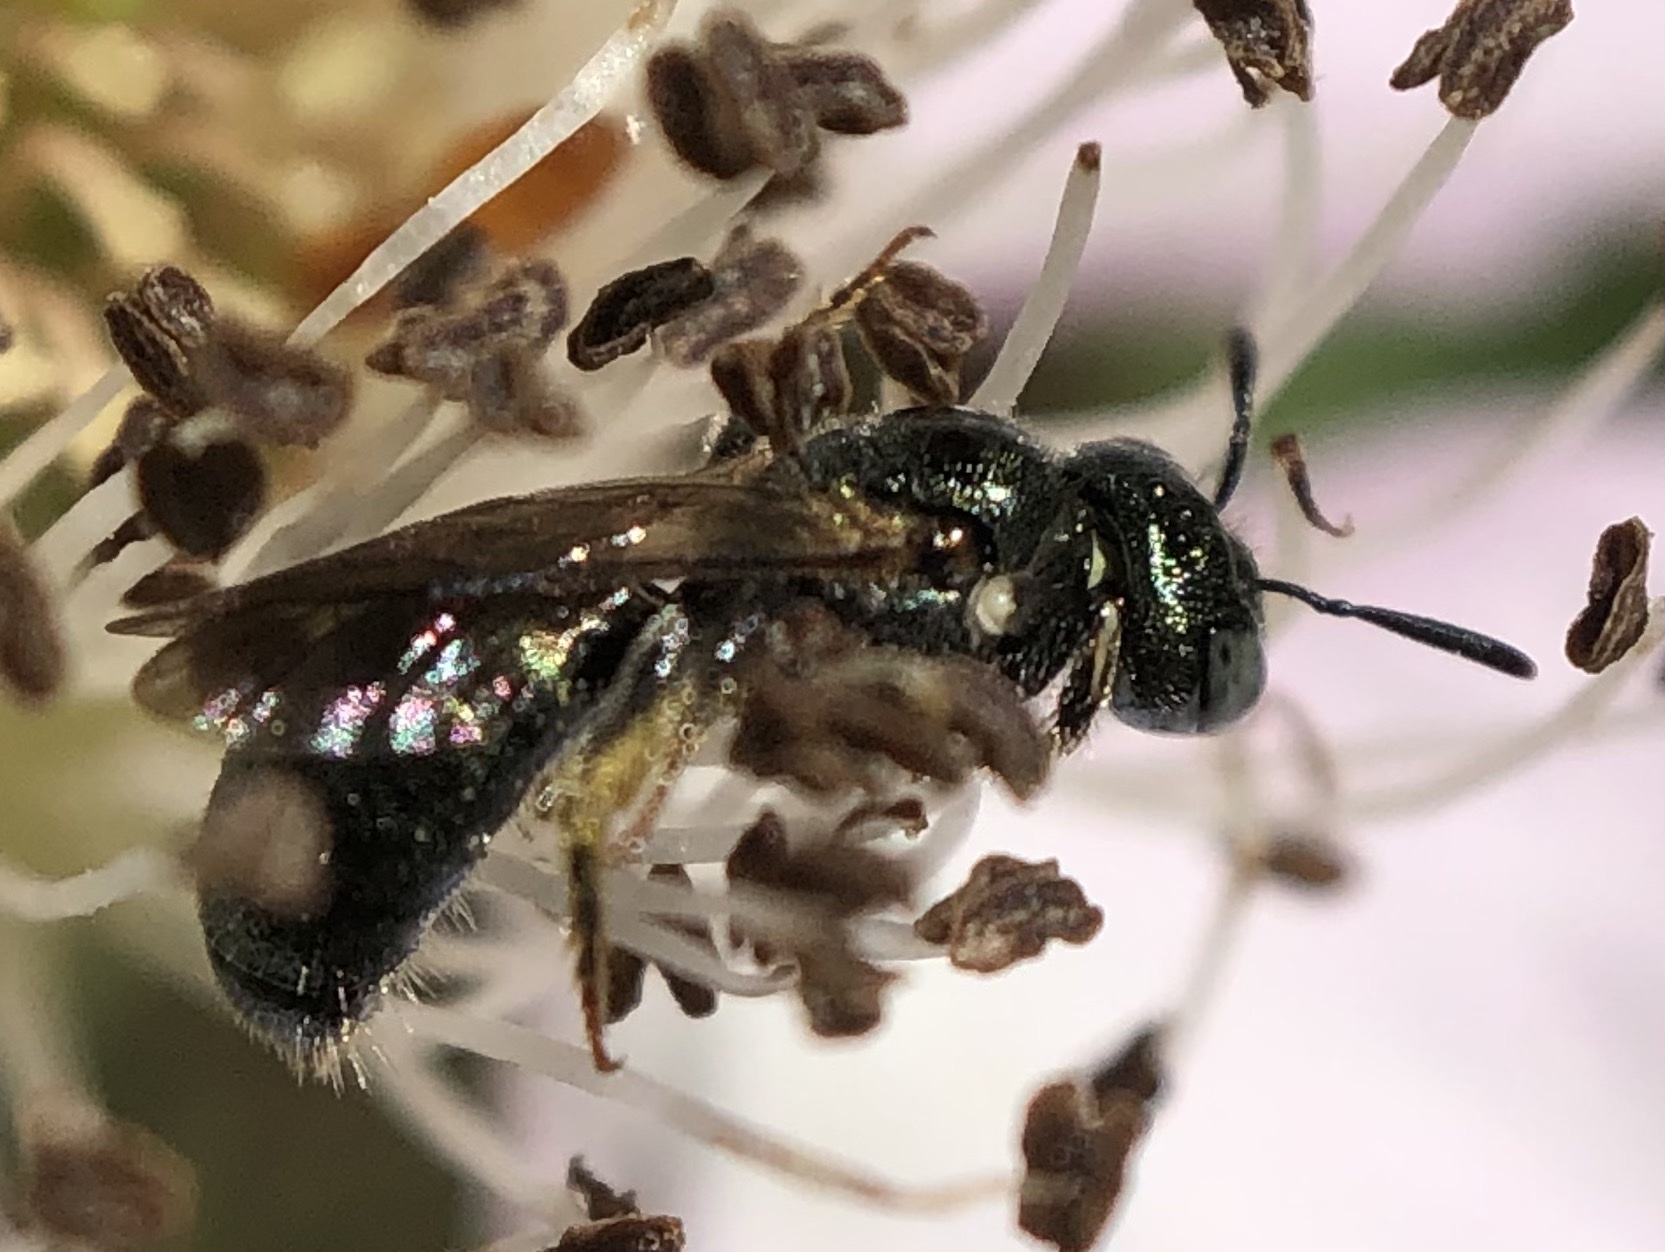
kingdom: Animalia
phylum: Arthropoda
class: Insecta
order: Hymenoptera
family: Apidae
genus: Ceratina
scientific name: Ceratina strenua
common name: Nimble carpenter bee
